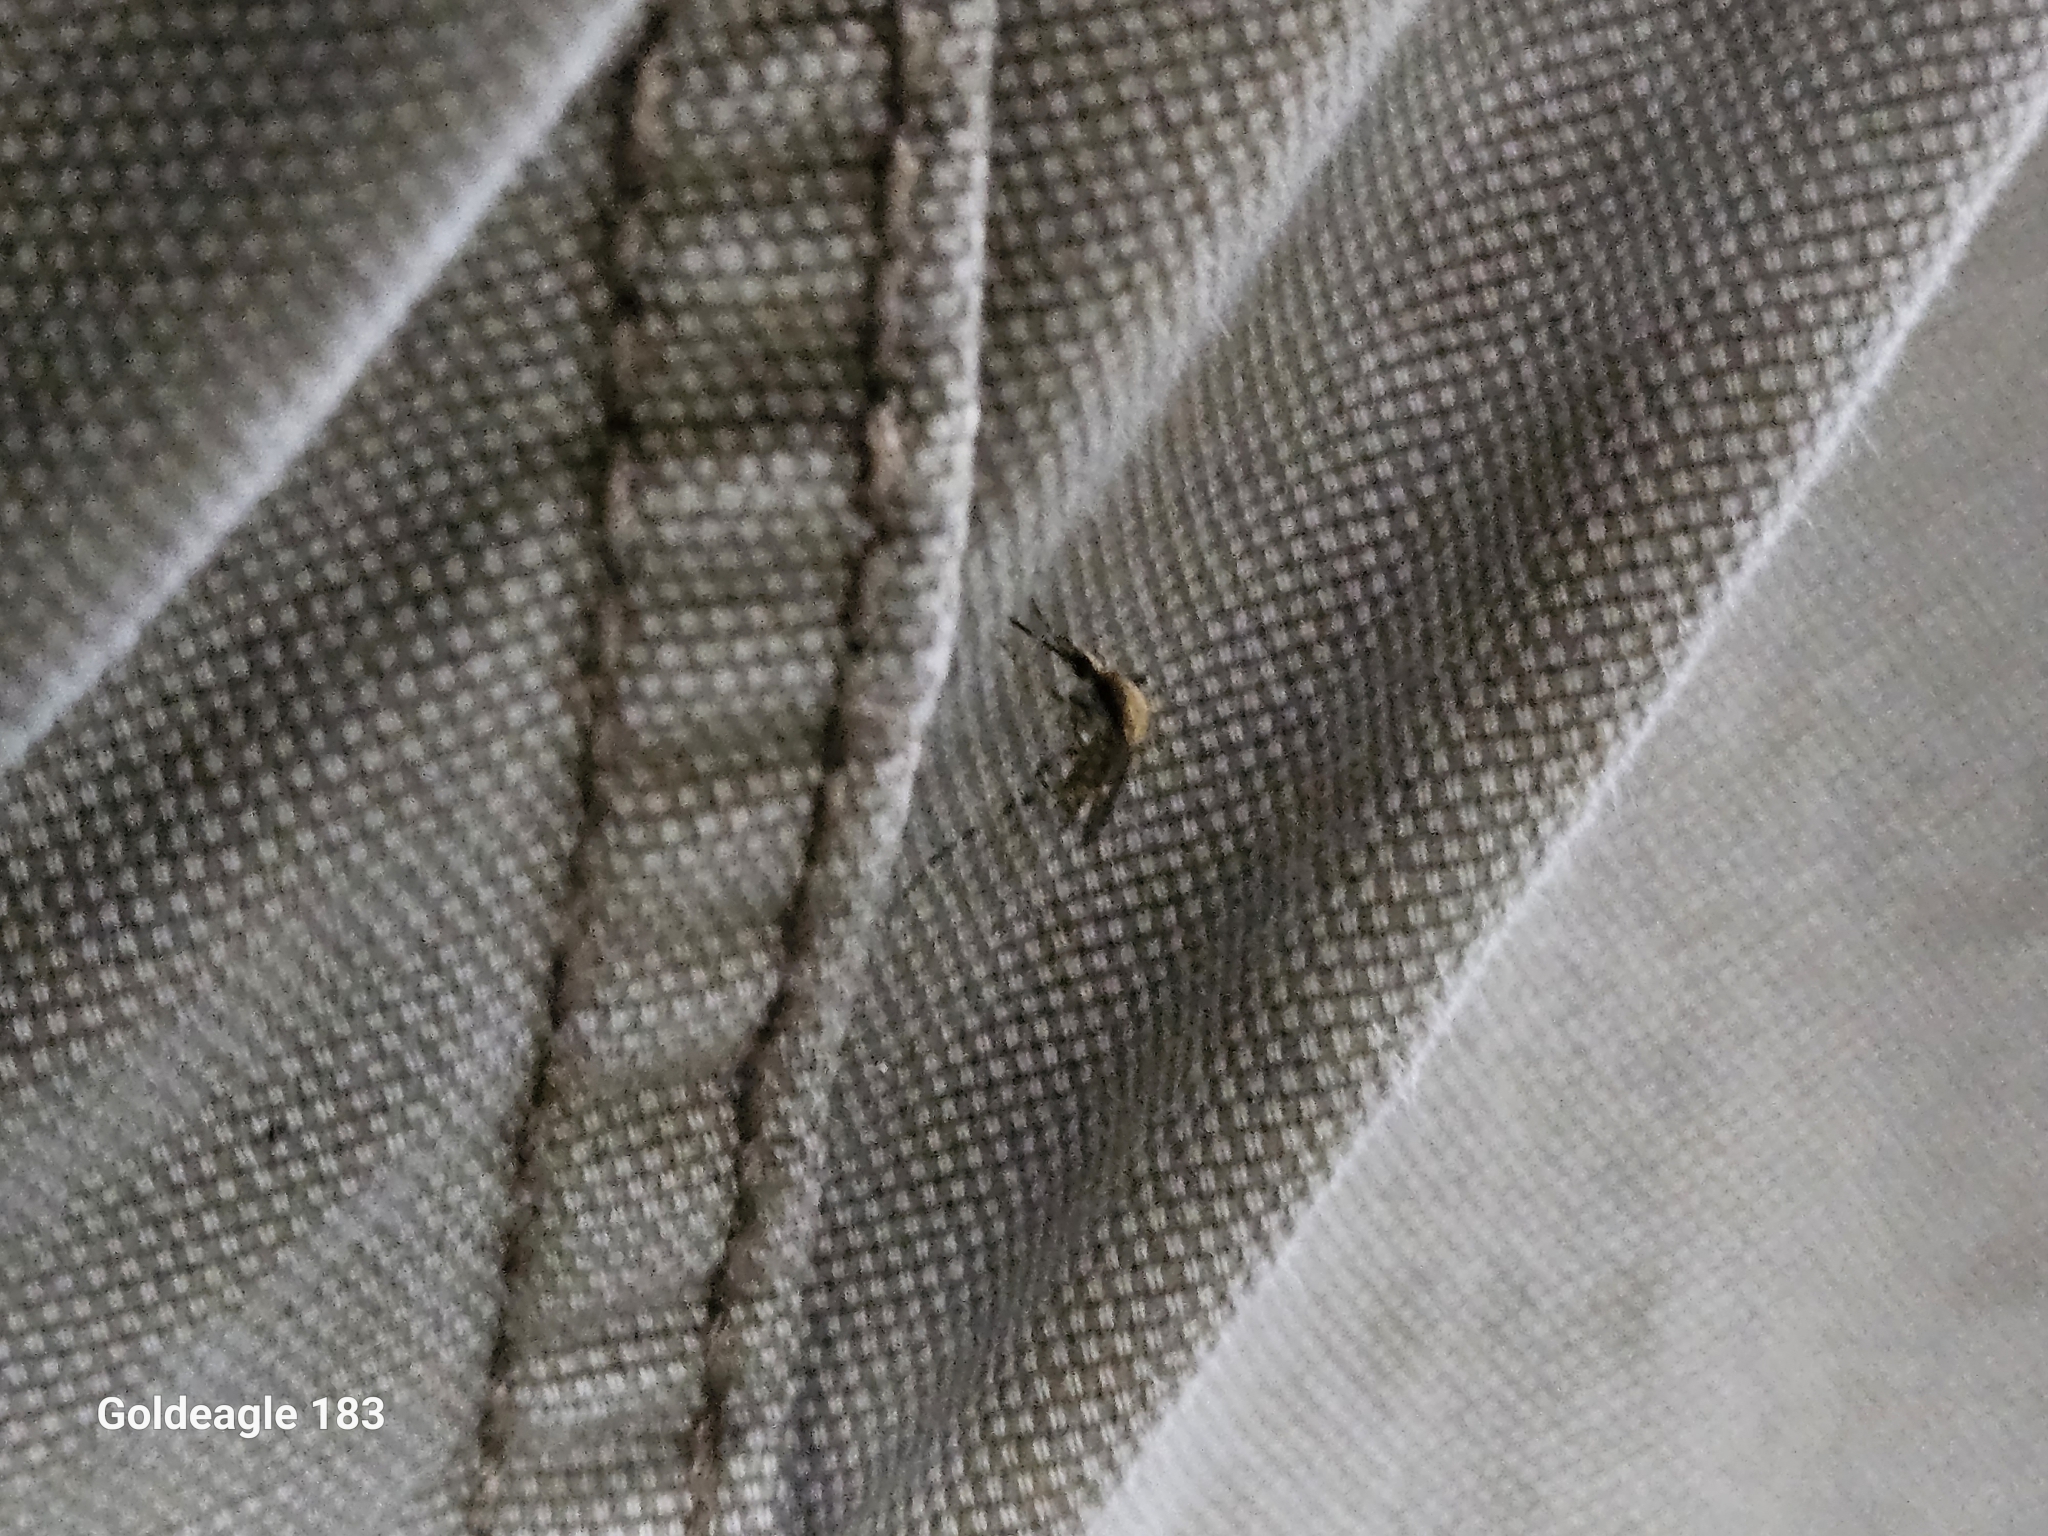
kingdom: Animalia
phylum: Arthropoda
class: Insecta
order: Diptera
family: Culicidae
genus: Aedes
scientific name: Aedes sollicitans
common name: Saltmarsh mosquito
